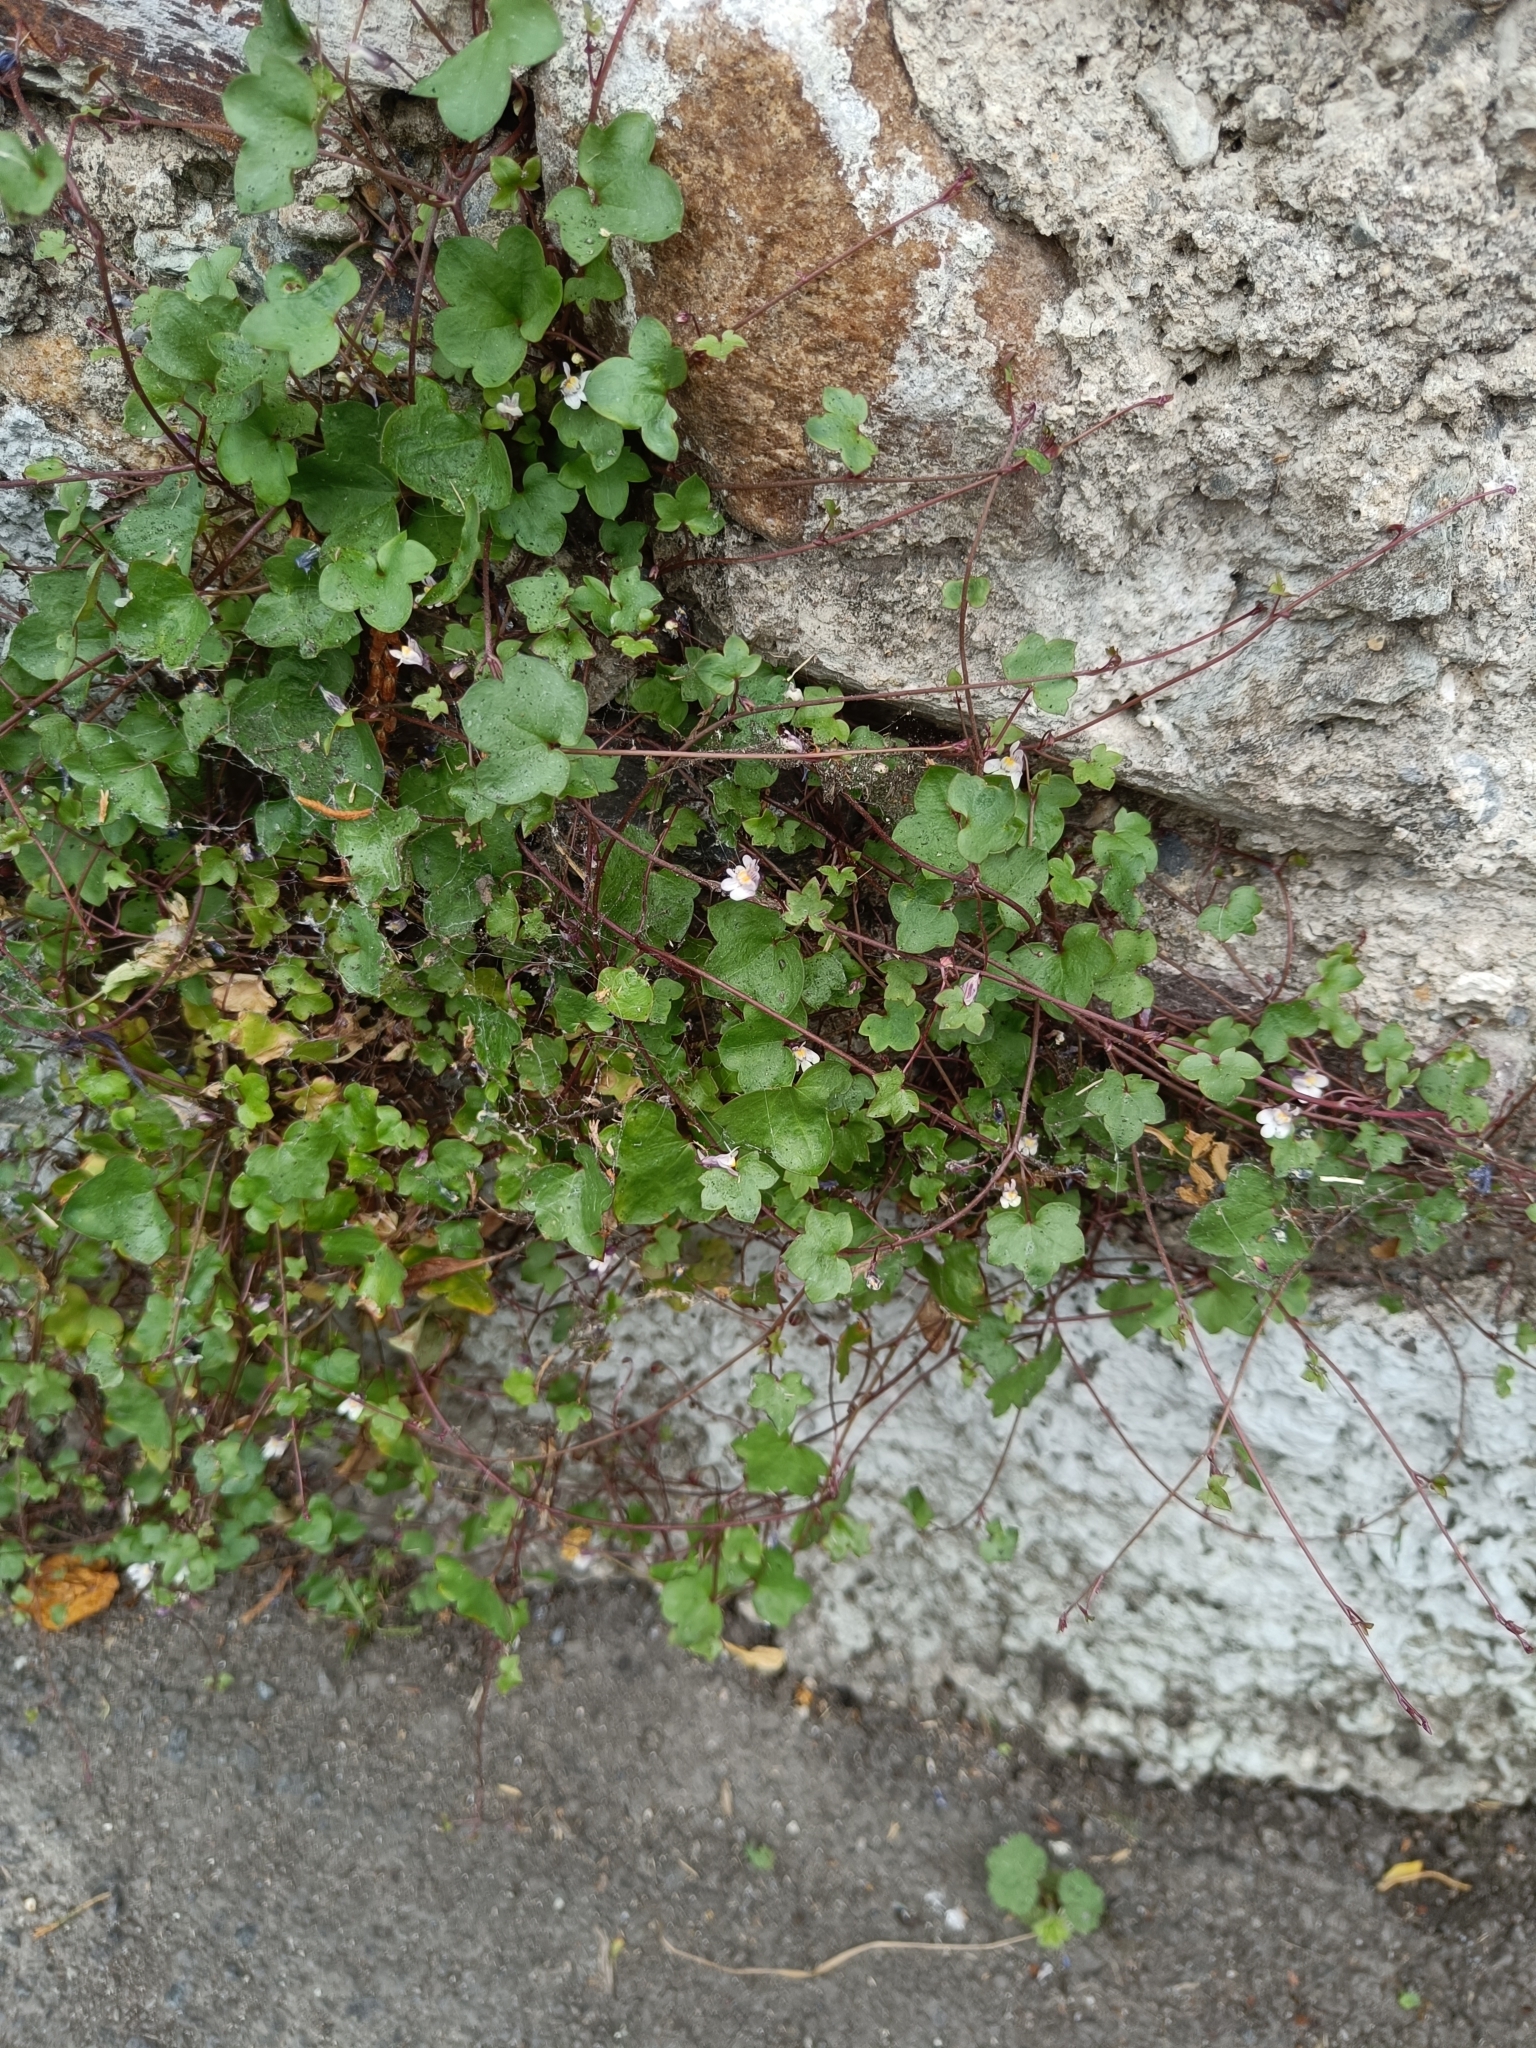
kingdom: Plantae
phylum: Tracheophyta
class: Magnoliopsida
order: Lamiales
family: Plantaginaceae
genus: Cymbalaria
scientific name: Cymbalaria muralis
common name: Ivy-leaved toadflax
